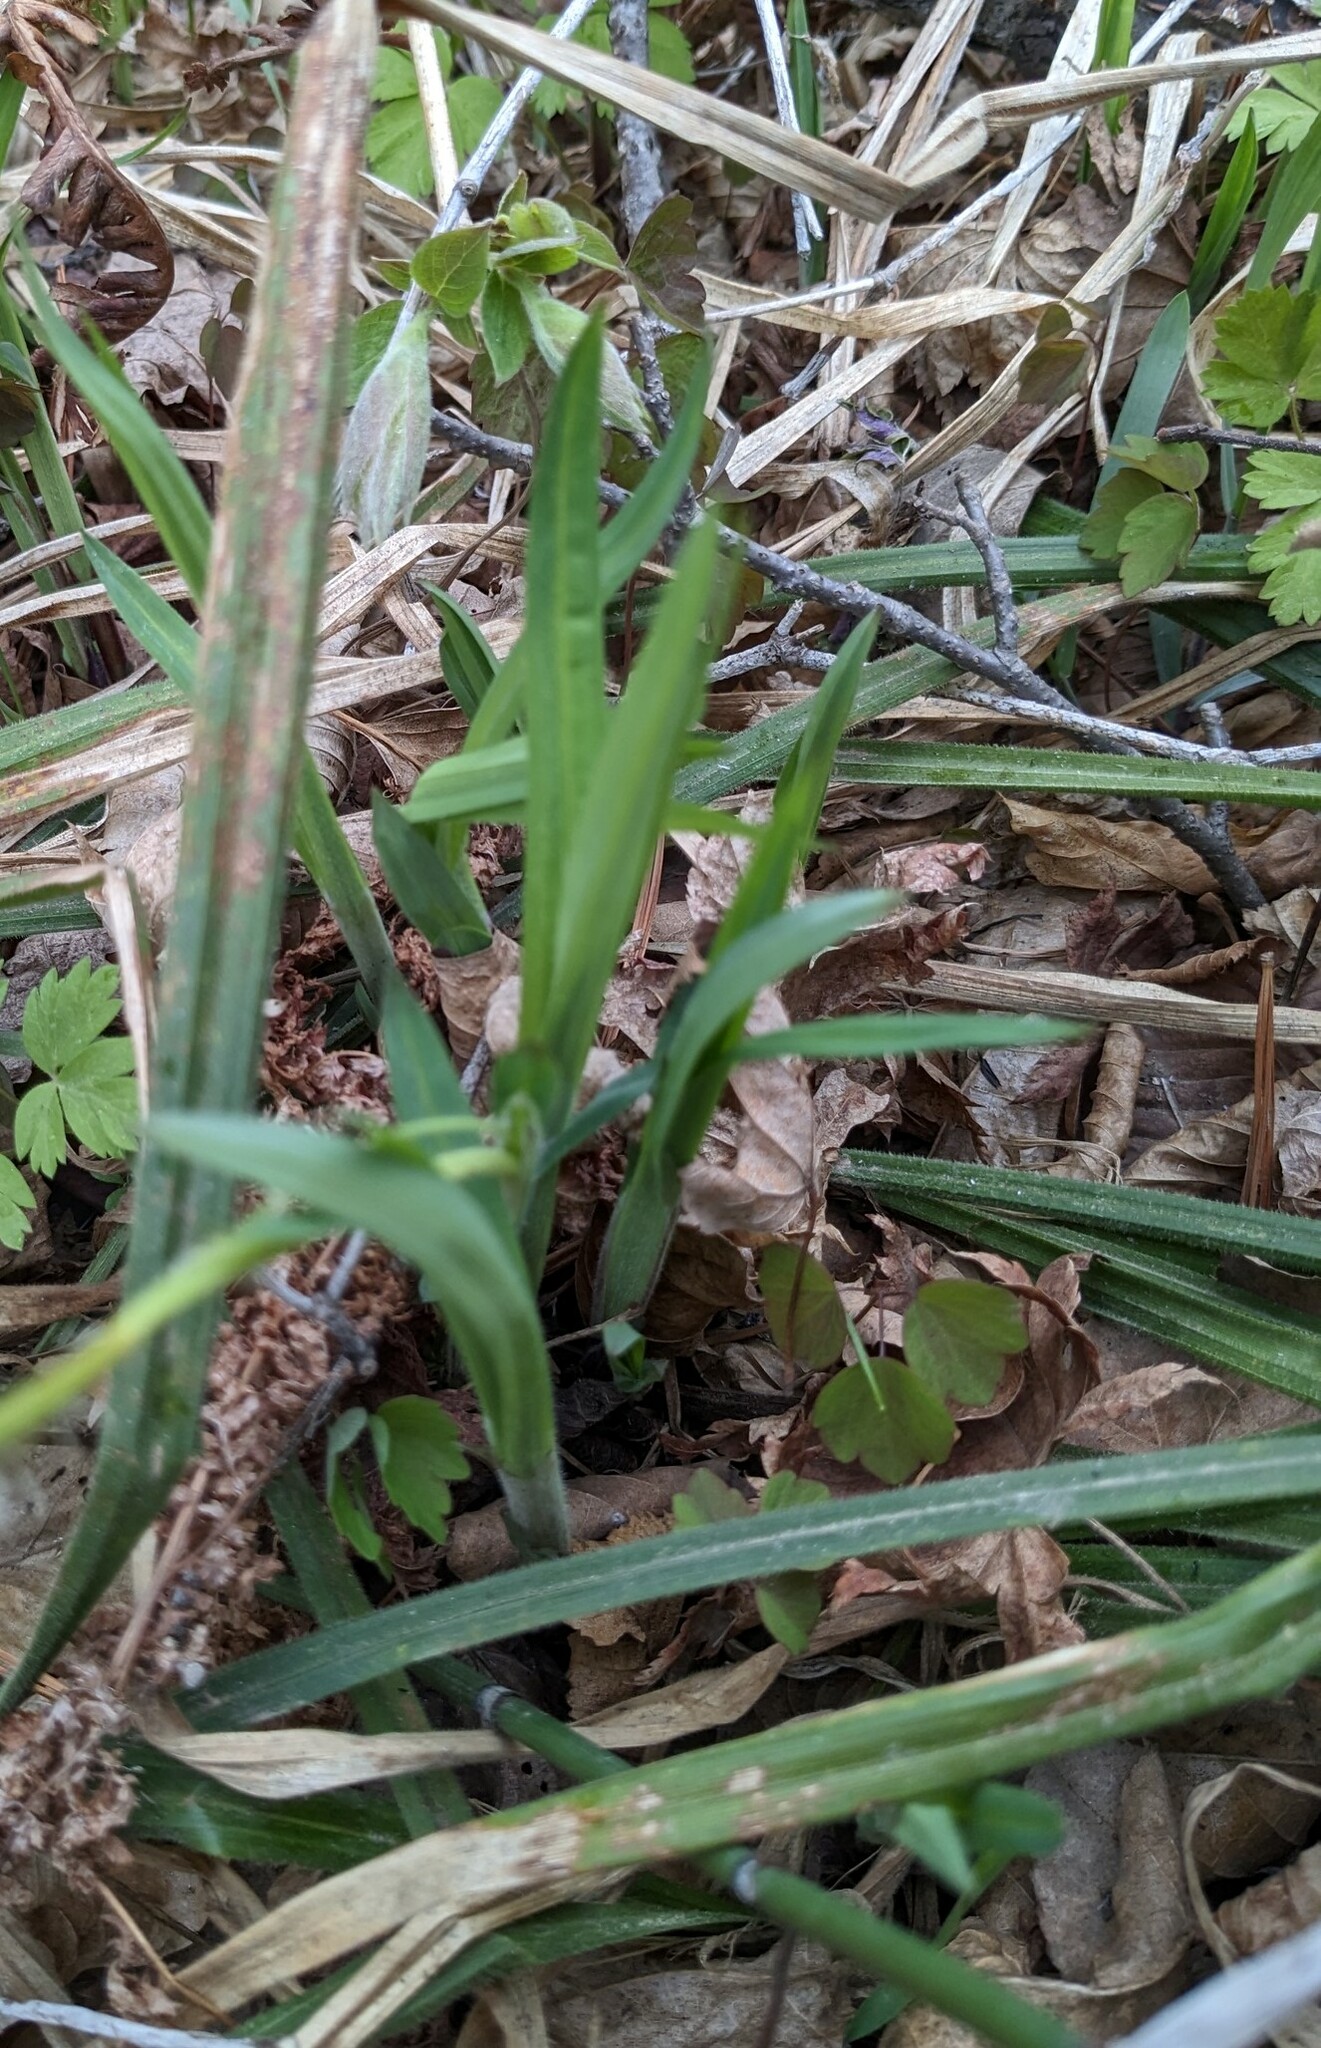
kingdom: Plantae
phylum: Tracheophyta
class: Liliopsida
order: Poales
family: Cyperaceae
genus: Carex
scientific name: Carex auriculata
